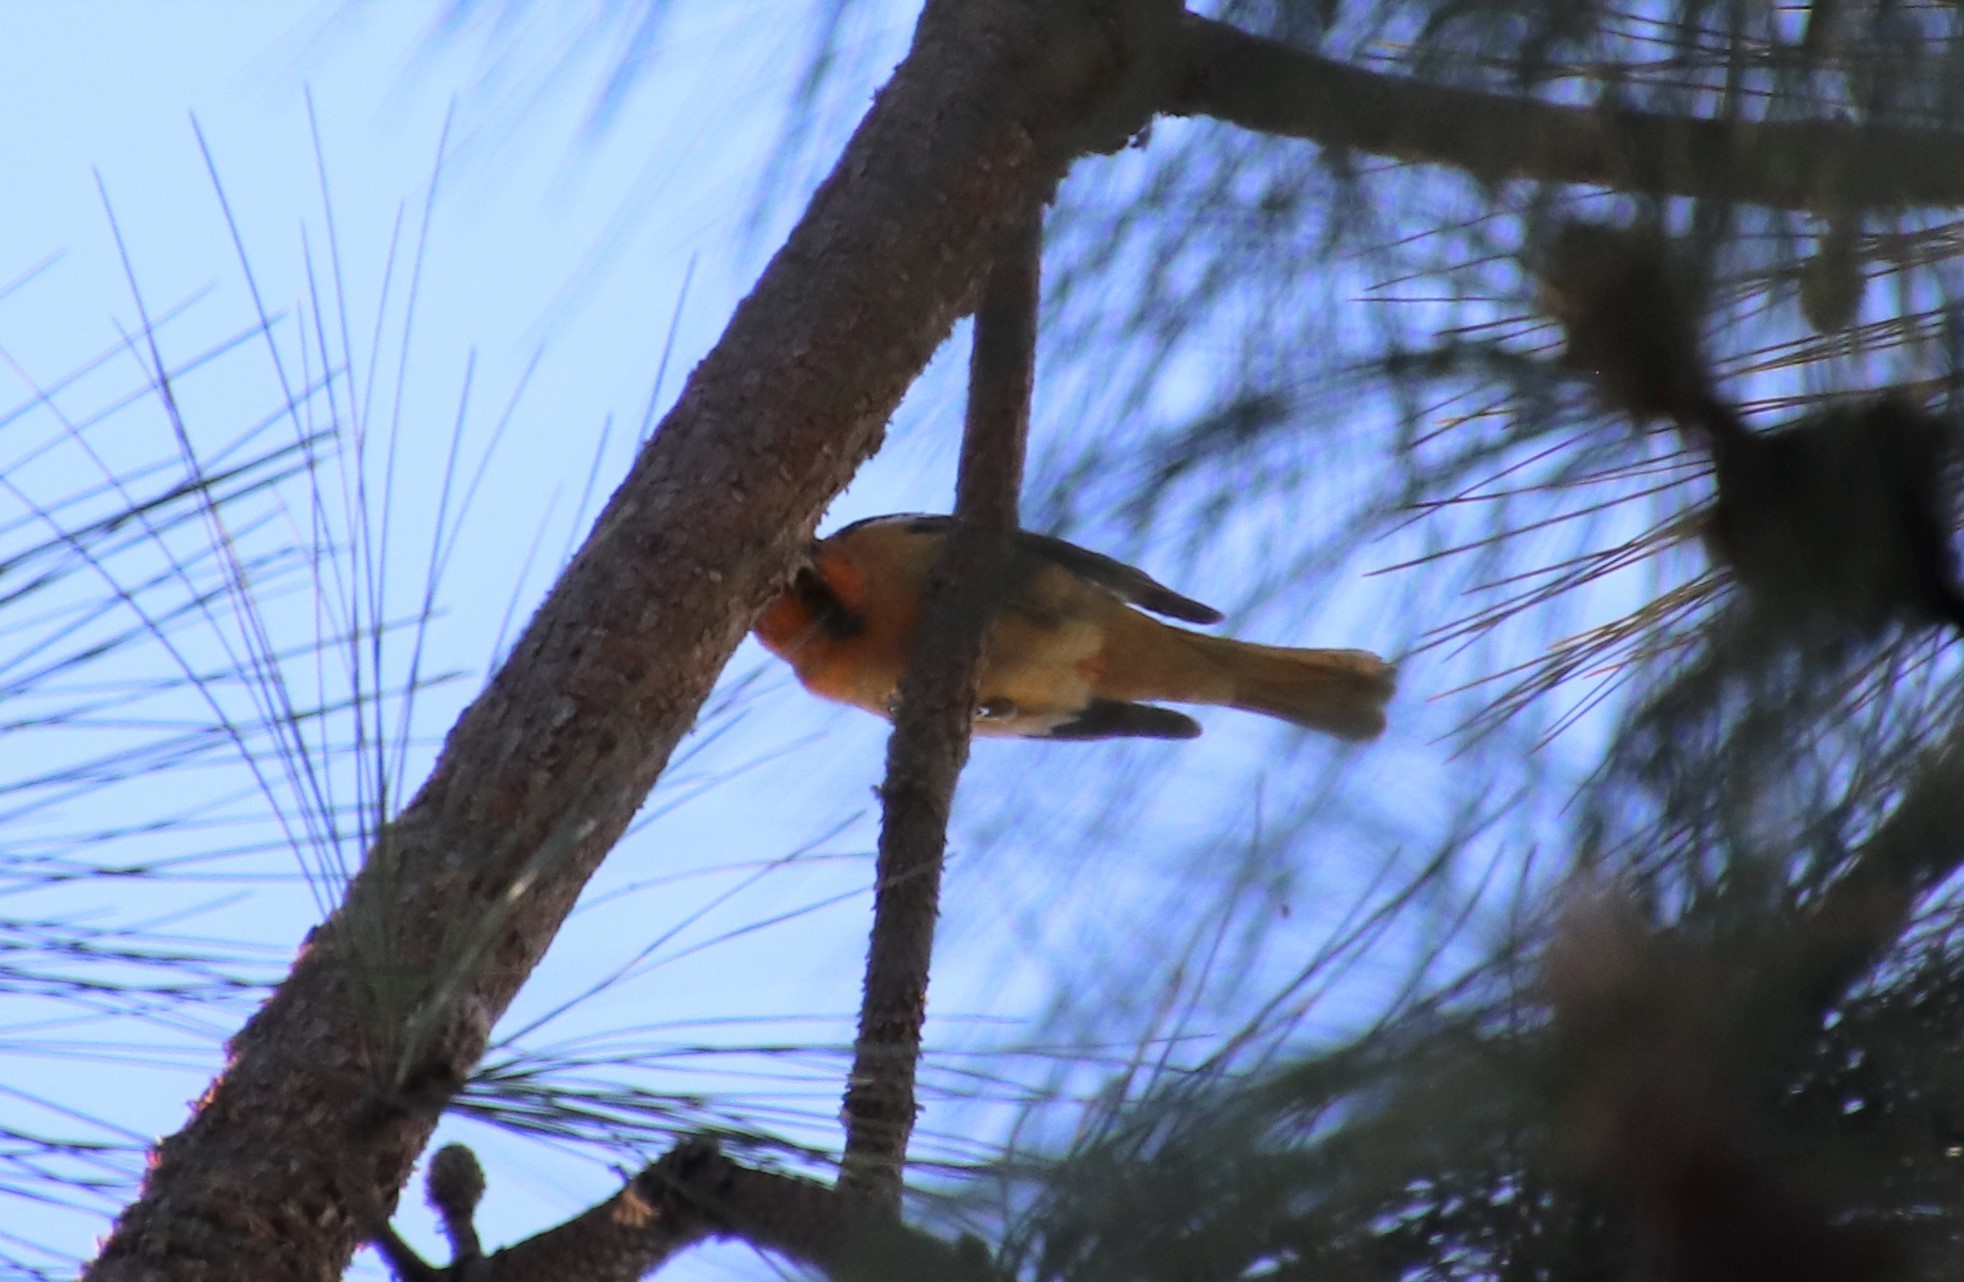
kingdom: Animalia
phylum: Chordata
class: Aves
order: Passeriformes
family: Icteridae
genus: Icterus
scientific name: Icterus bullockii
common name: Bullock's oriole
